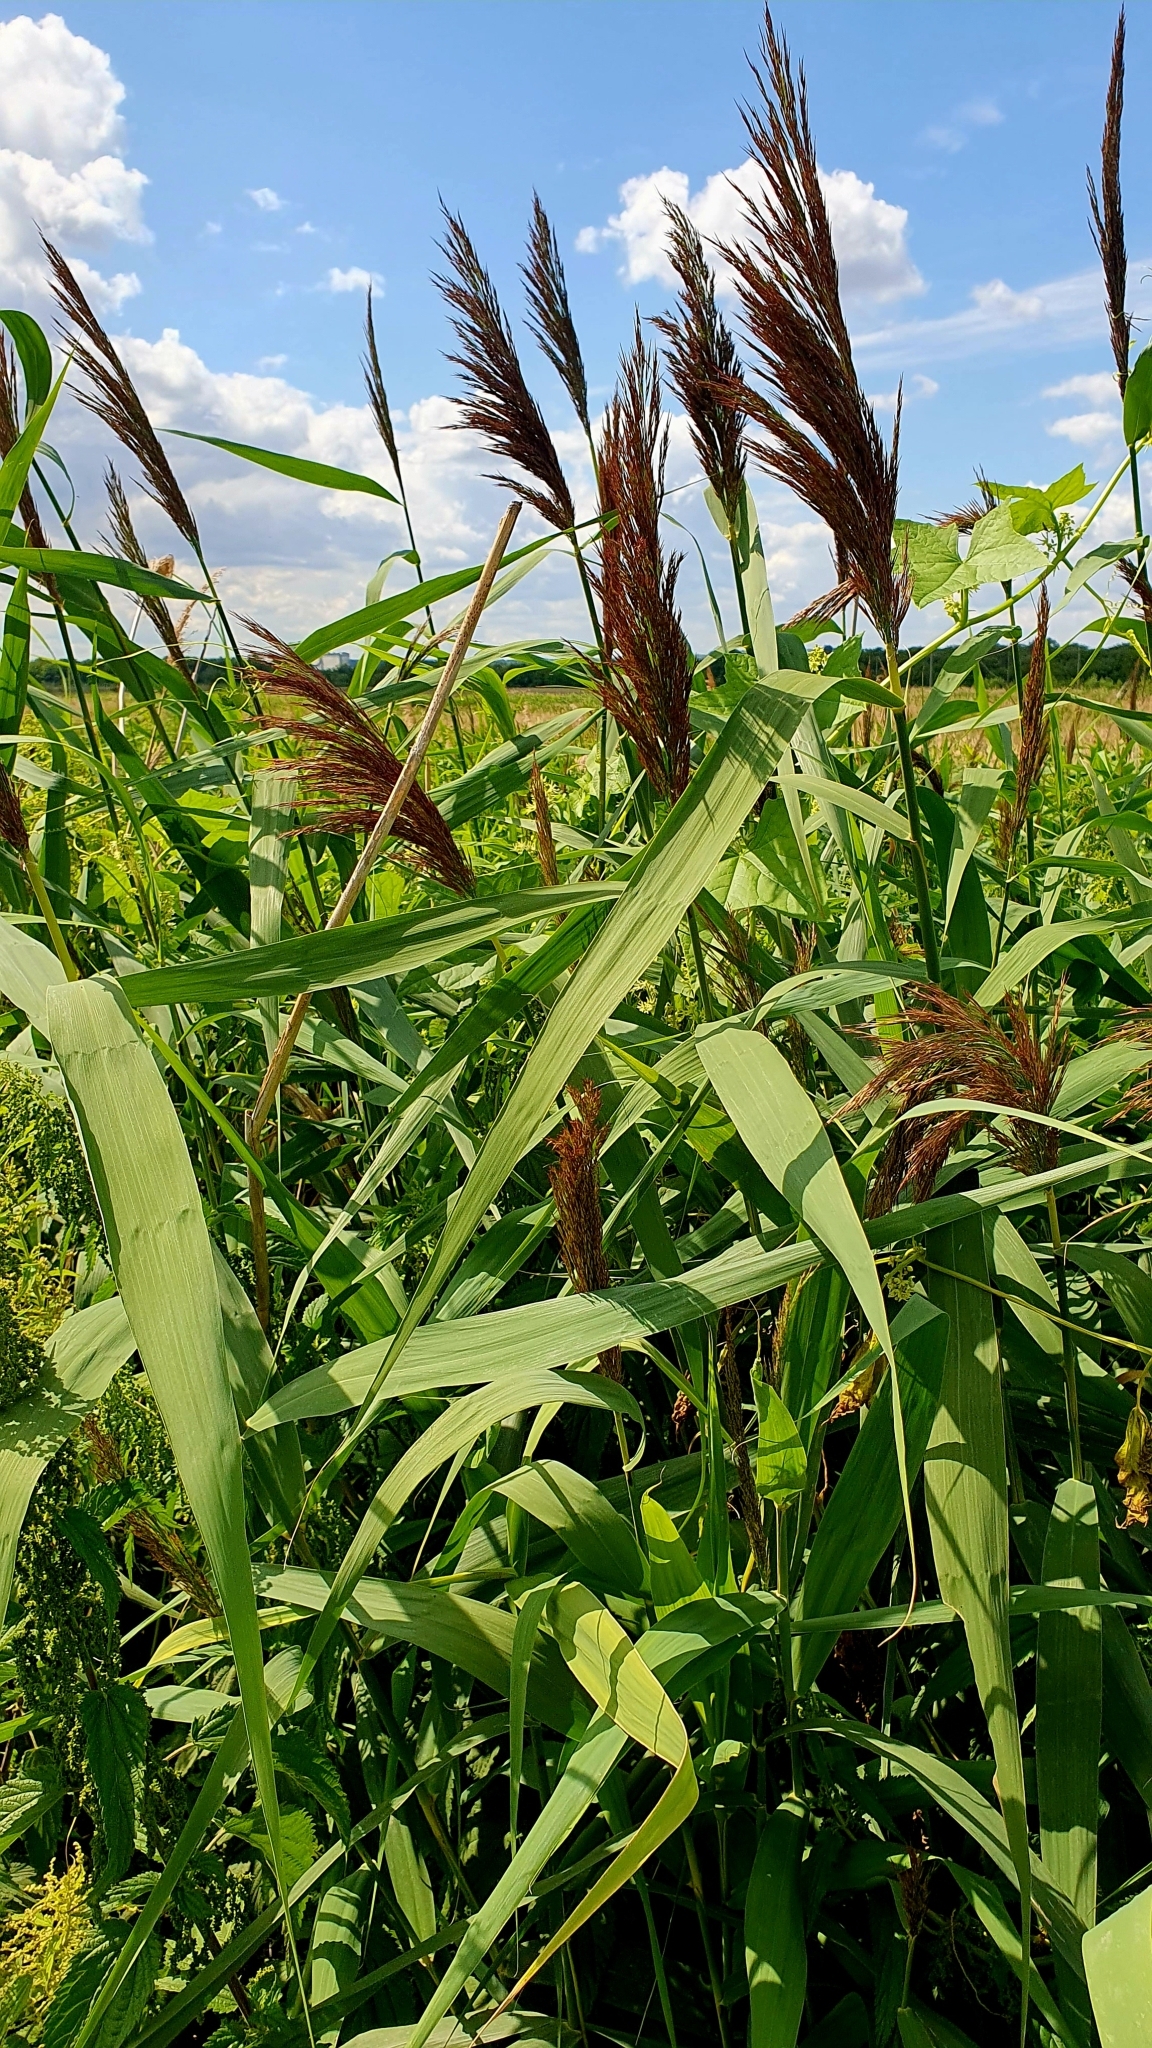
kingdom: Plantae
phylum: Tracheophyta
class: Liliopsida
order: Poales
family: Poaceae
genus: Phragmites
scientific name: Phragmites australis
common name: Common reed
